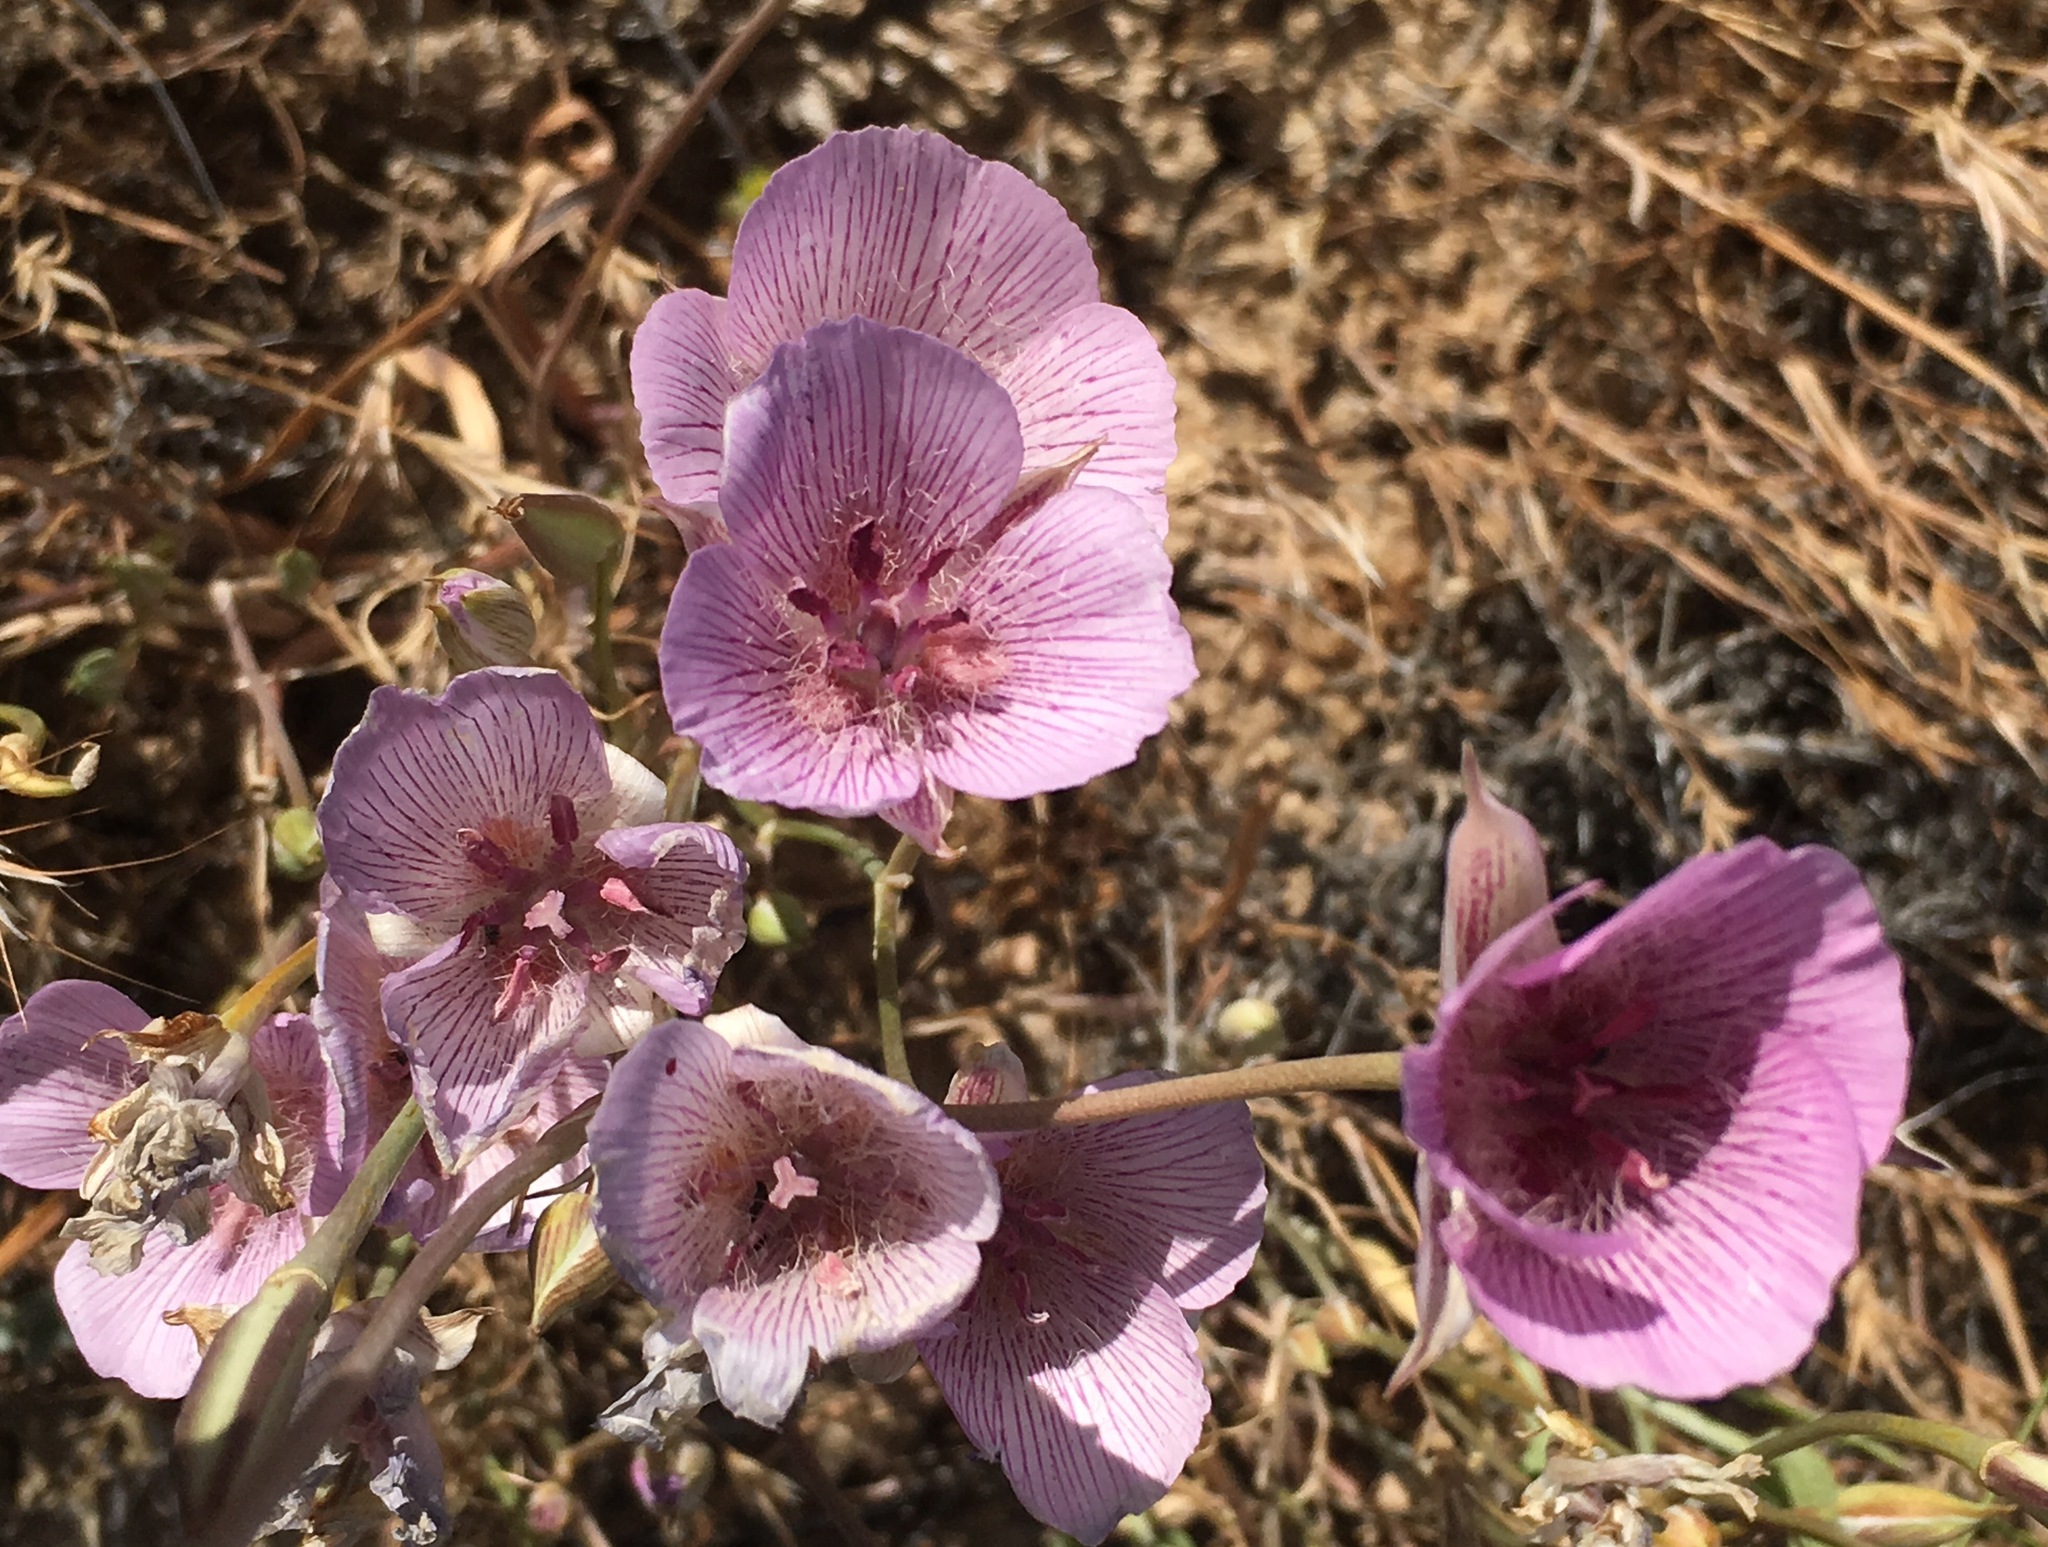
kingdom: Plantae
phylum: Tracheophyta
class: Liliopsida
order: Liliales
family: Liliaceae
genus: Calochortus
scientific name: Calochortus striatus
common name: Alkali mariposa-lily
